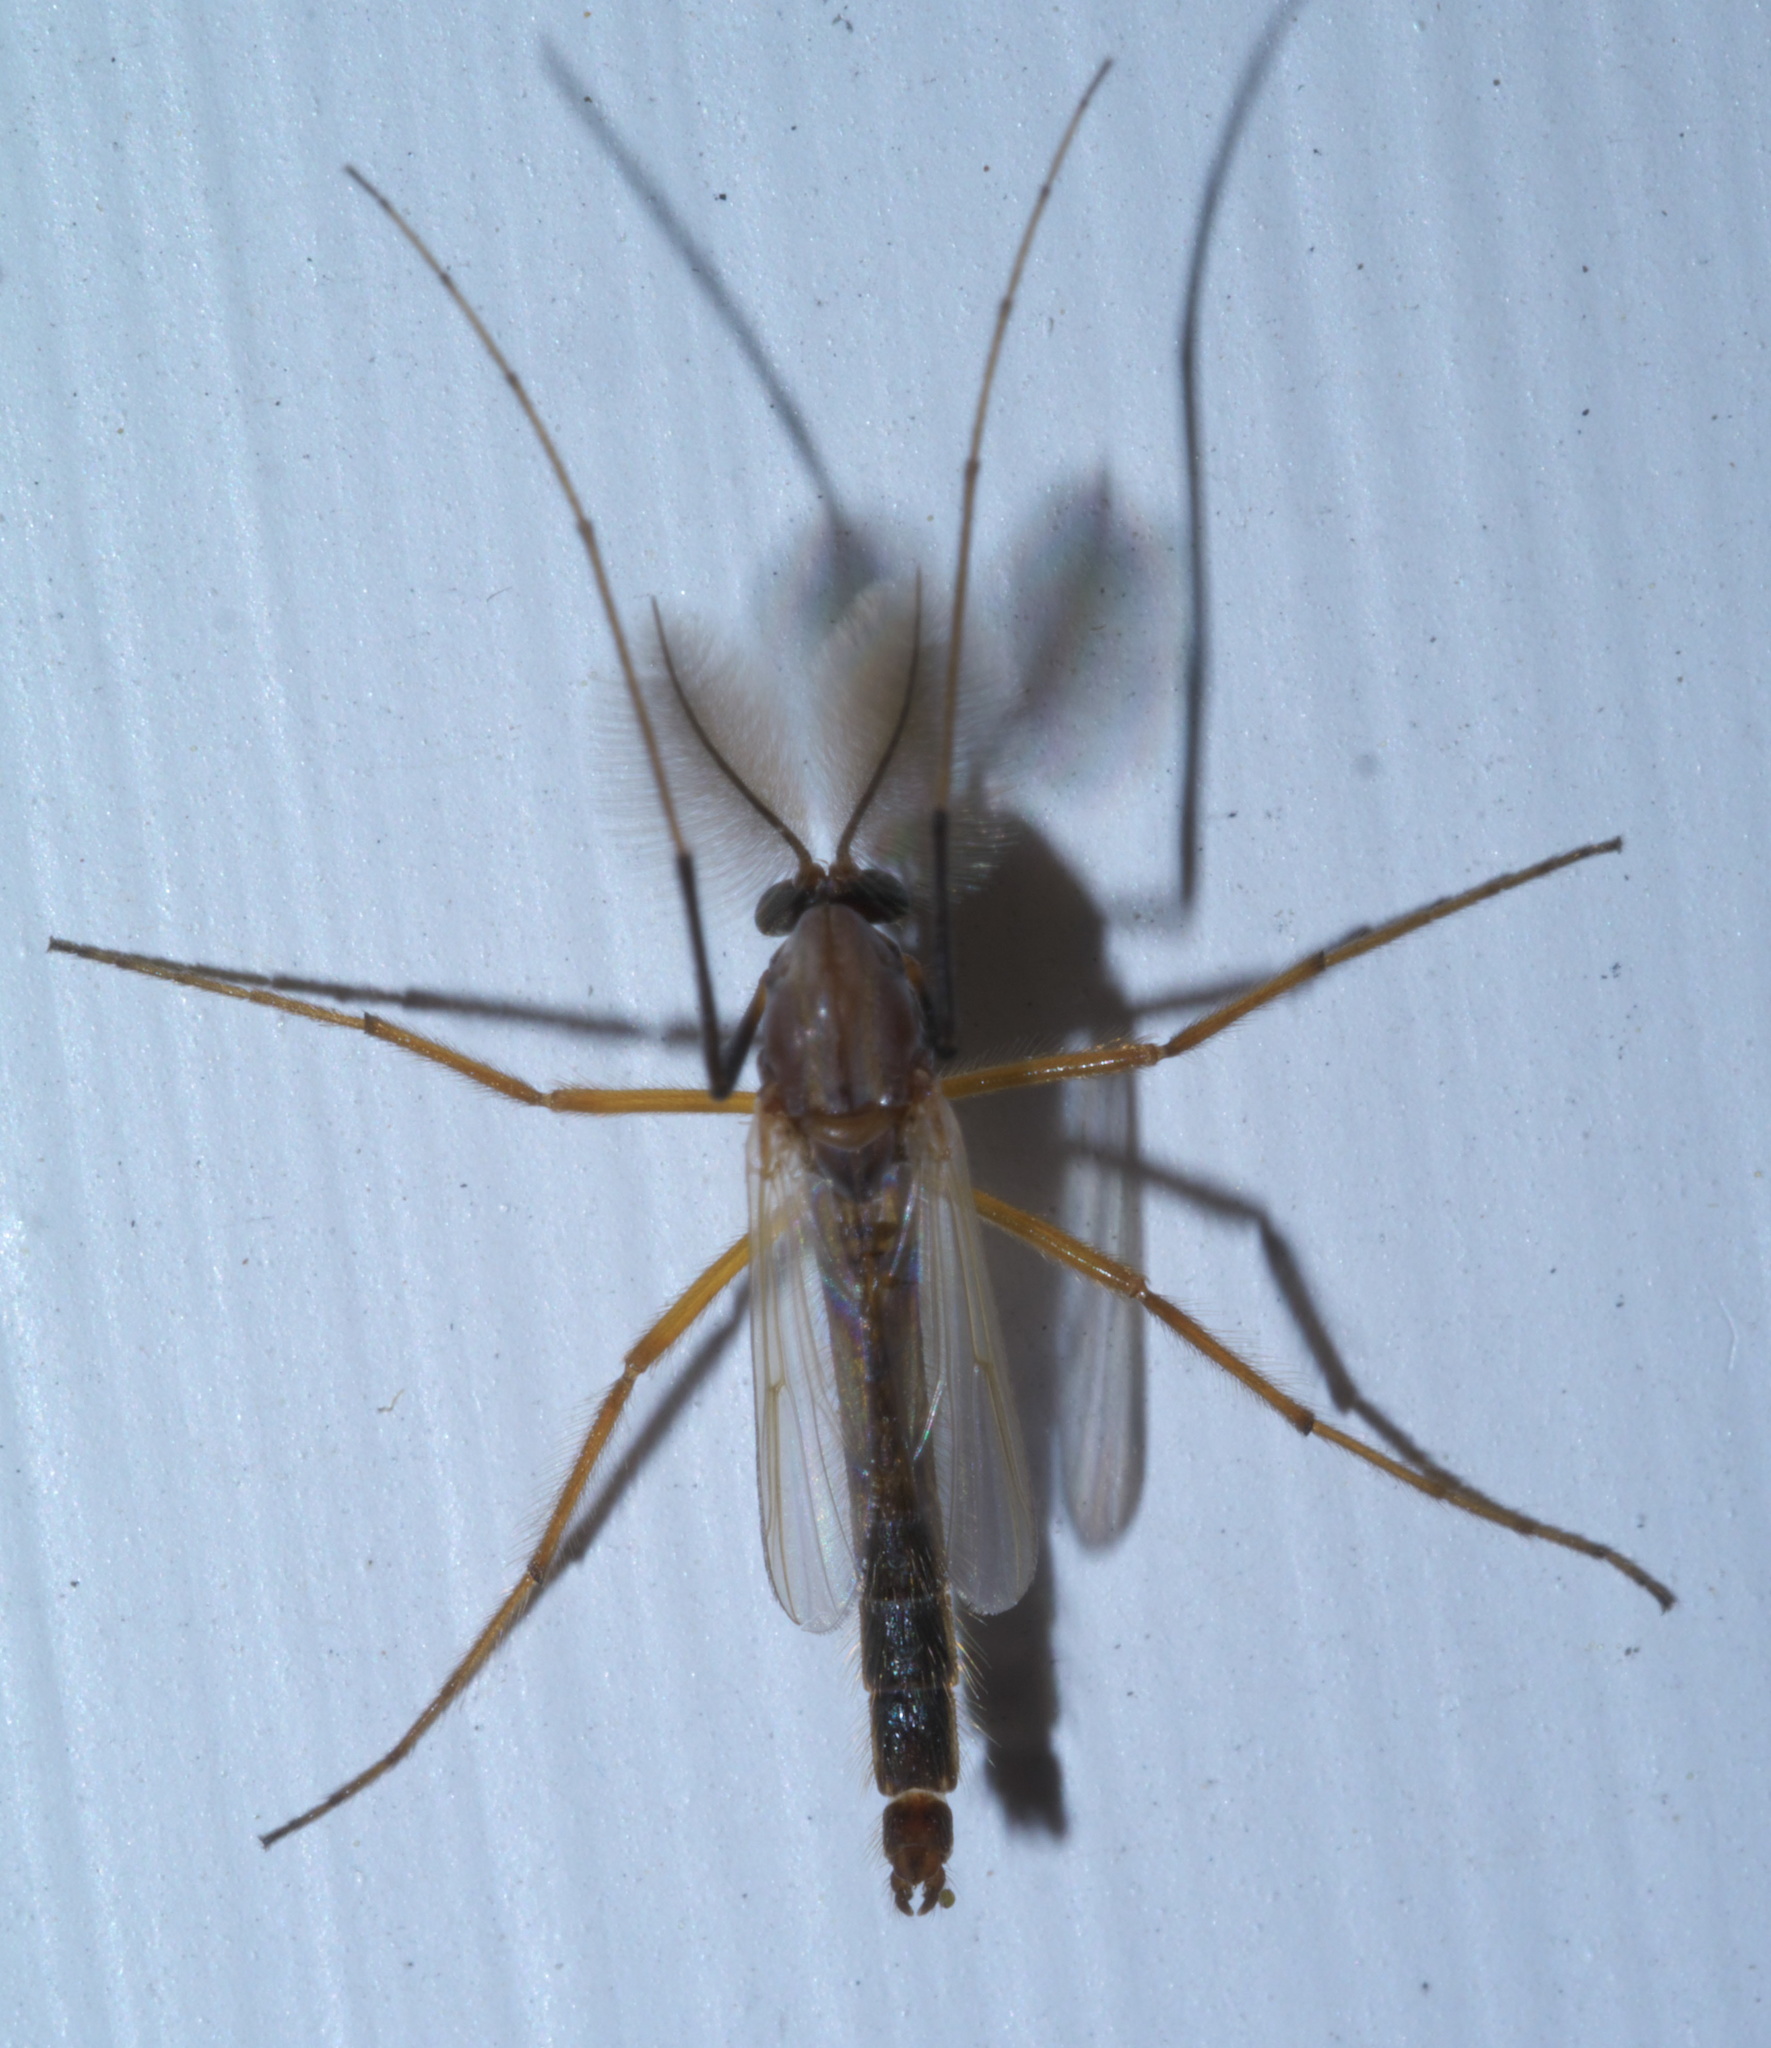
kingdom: Animalia
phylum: Arthropoda
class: Insecta
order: Diptera
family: Chironomidae
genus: Glyptotendipes
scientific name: Glyptotendipes testaceus
